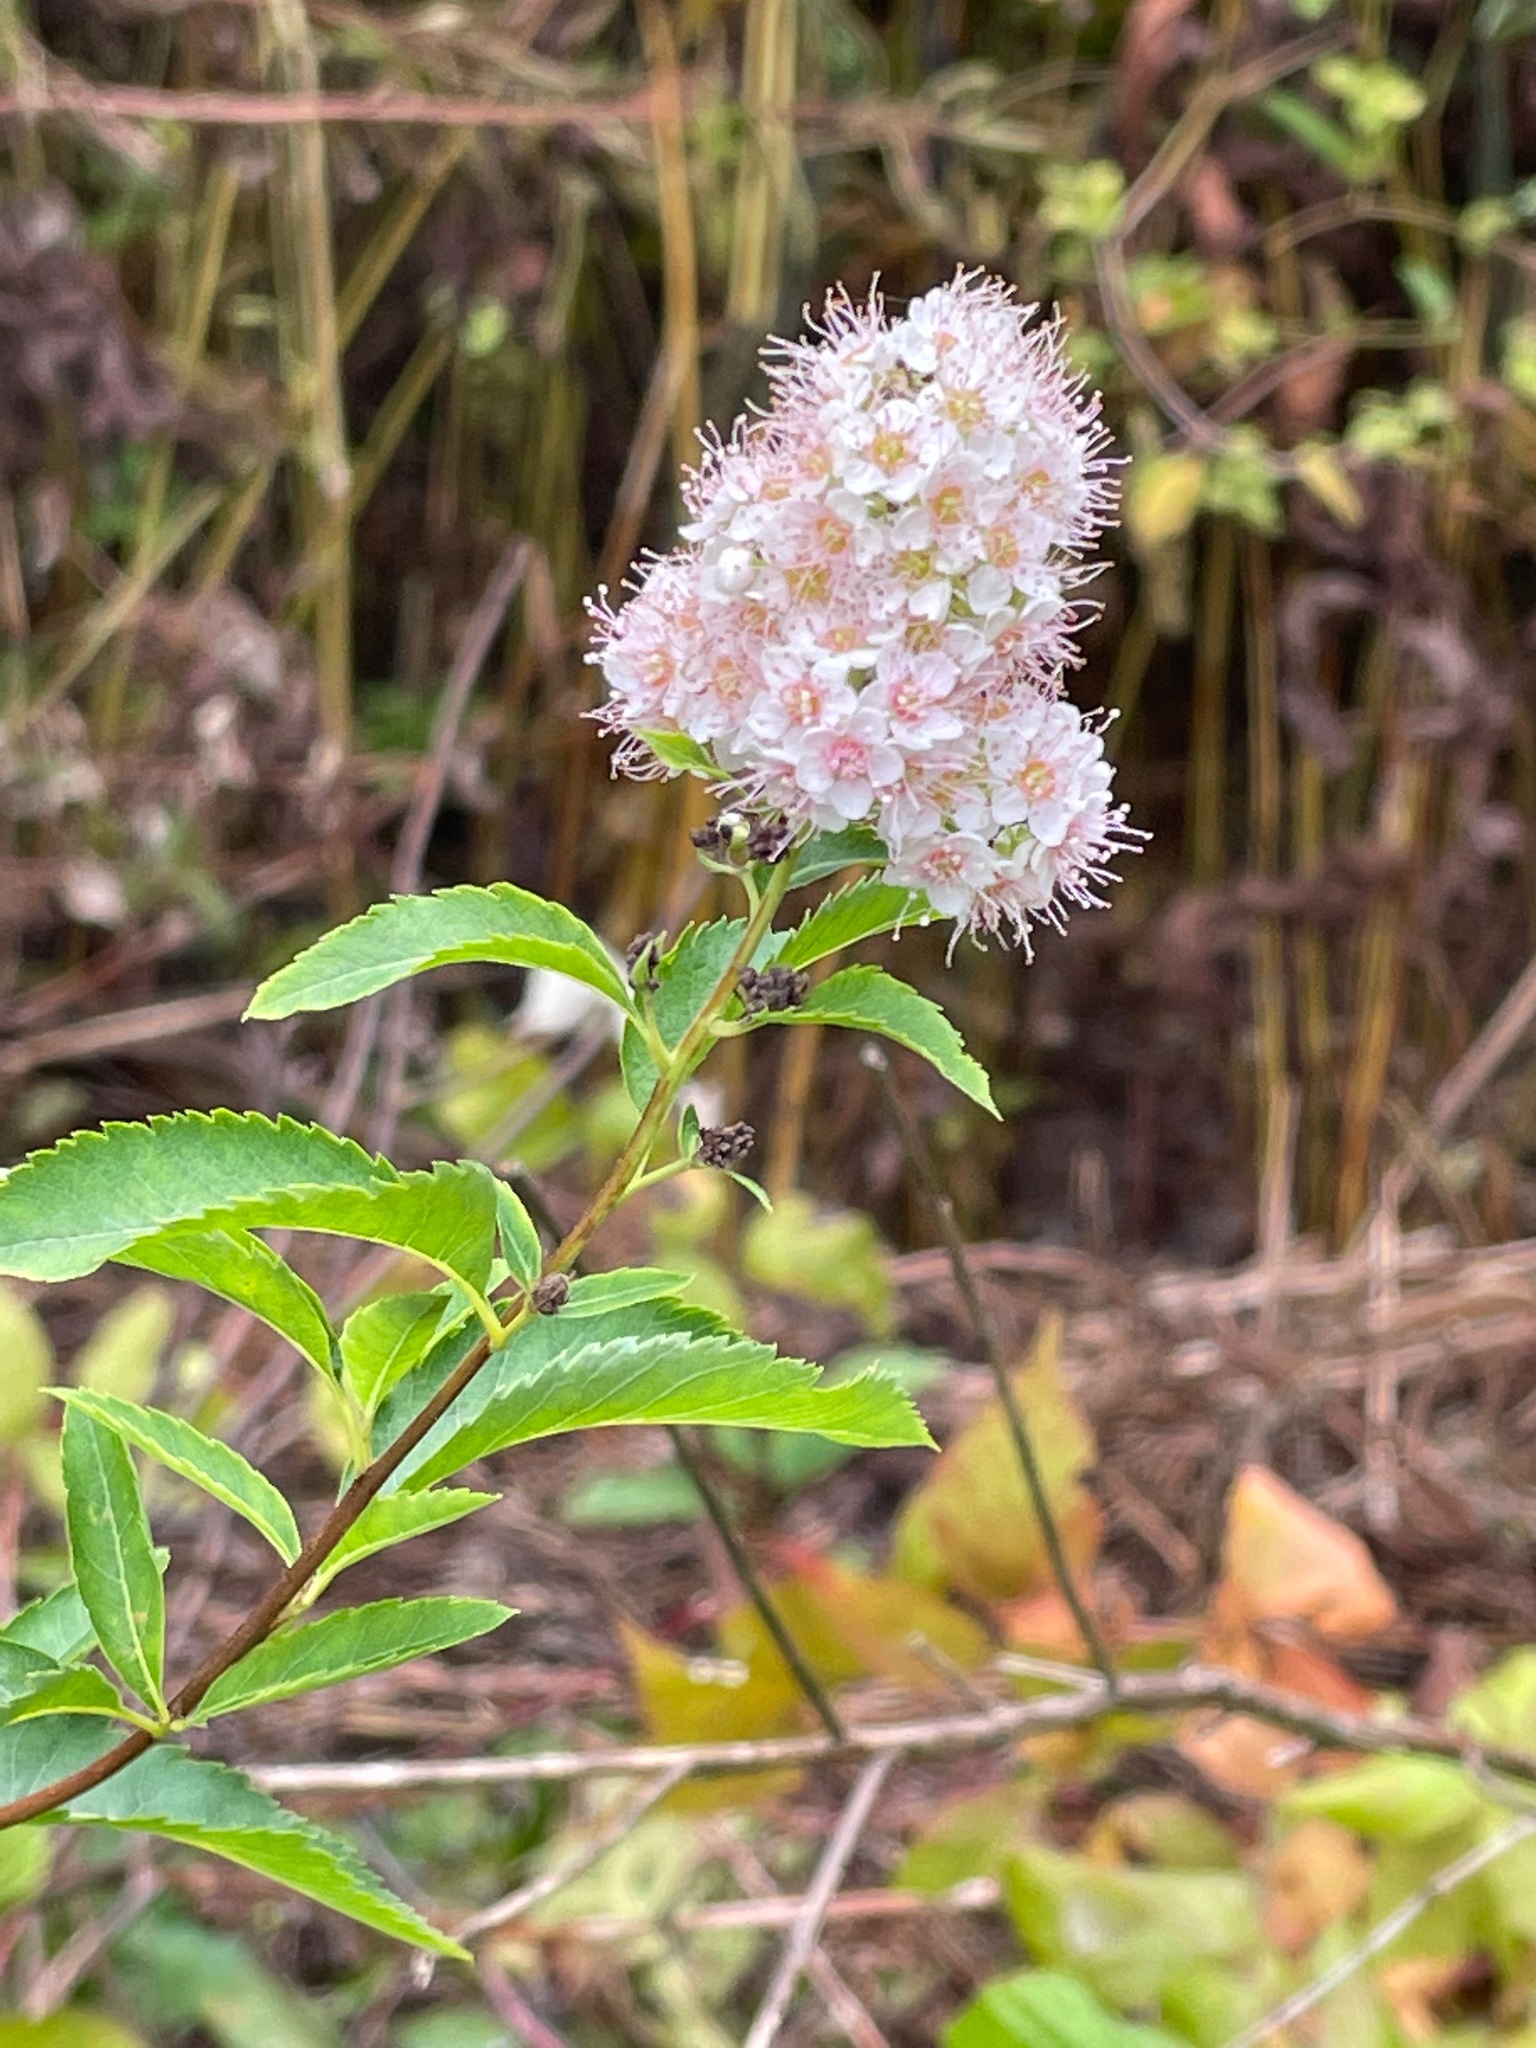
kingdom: Plantae
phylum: Tracheophyta
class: Magnoliopsida
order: Rosales
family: Rosaceae
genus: Spiraea
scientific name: Spiraea alba
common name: Pale bridewort
